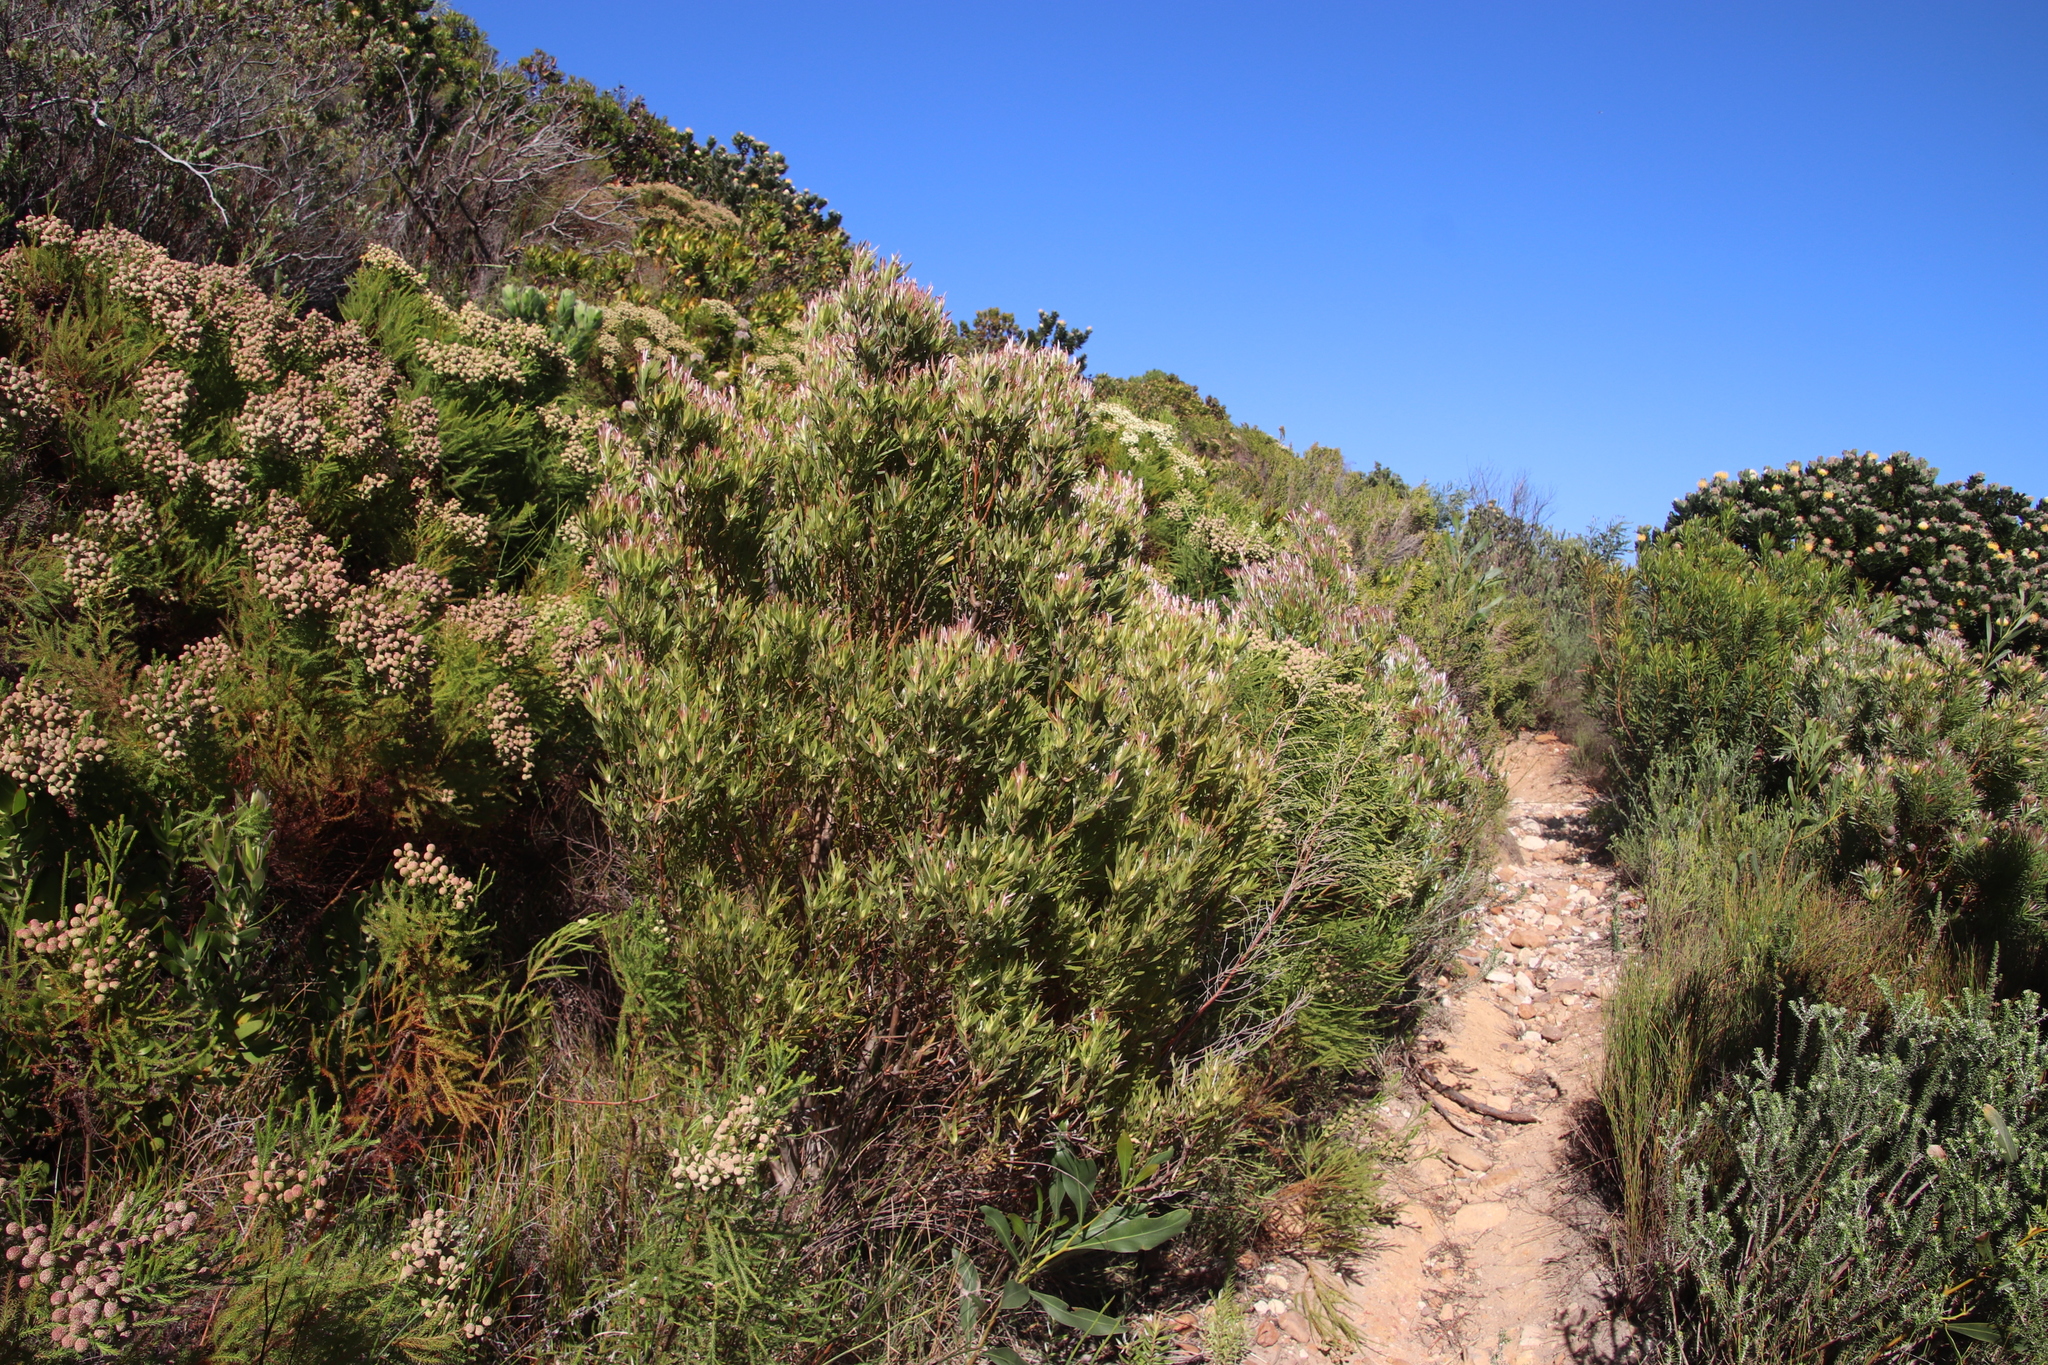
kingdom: Plantae
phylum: Tracheophyta
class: Magnoliopsida
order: Proteales
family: Proteaceae
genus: Leucadendron
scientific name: Leucadendron xanthoconus
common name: Sickle-leaf conebush
